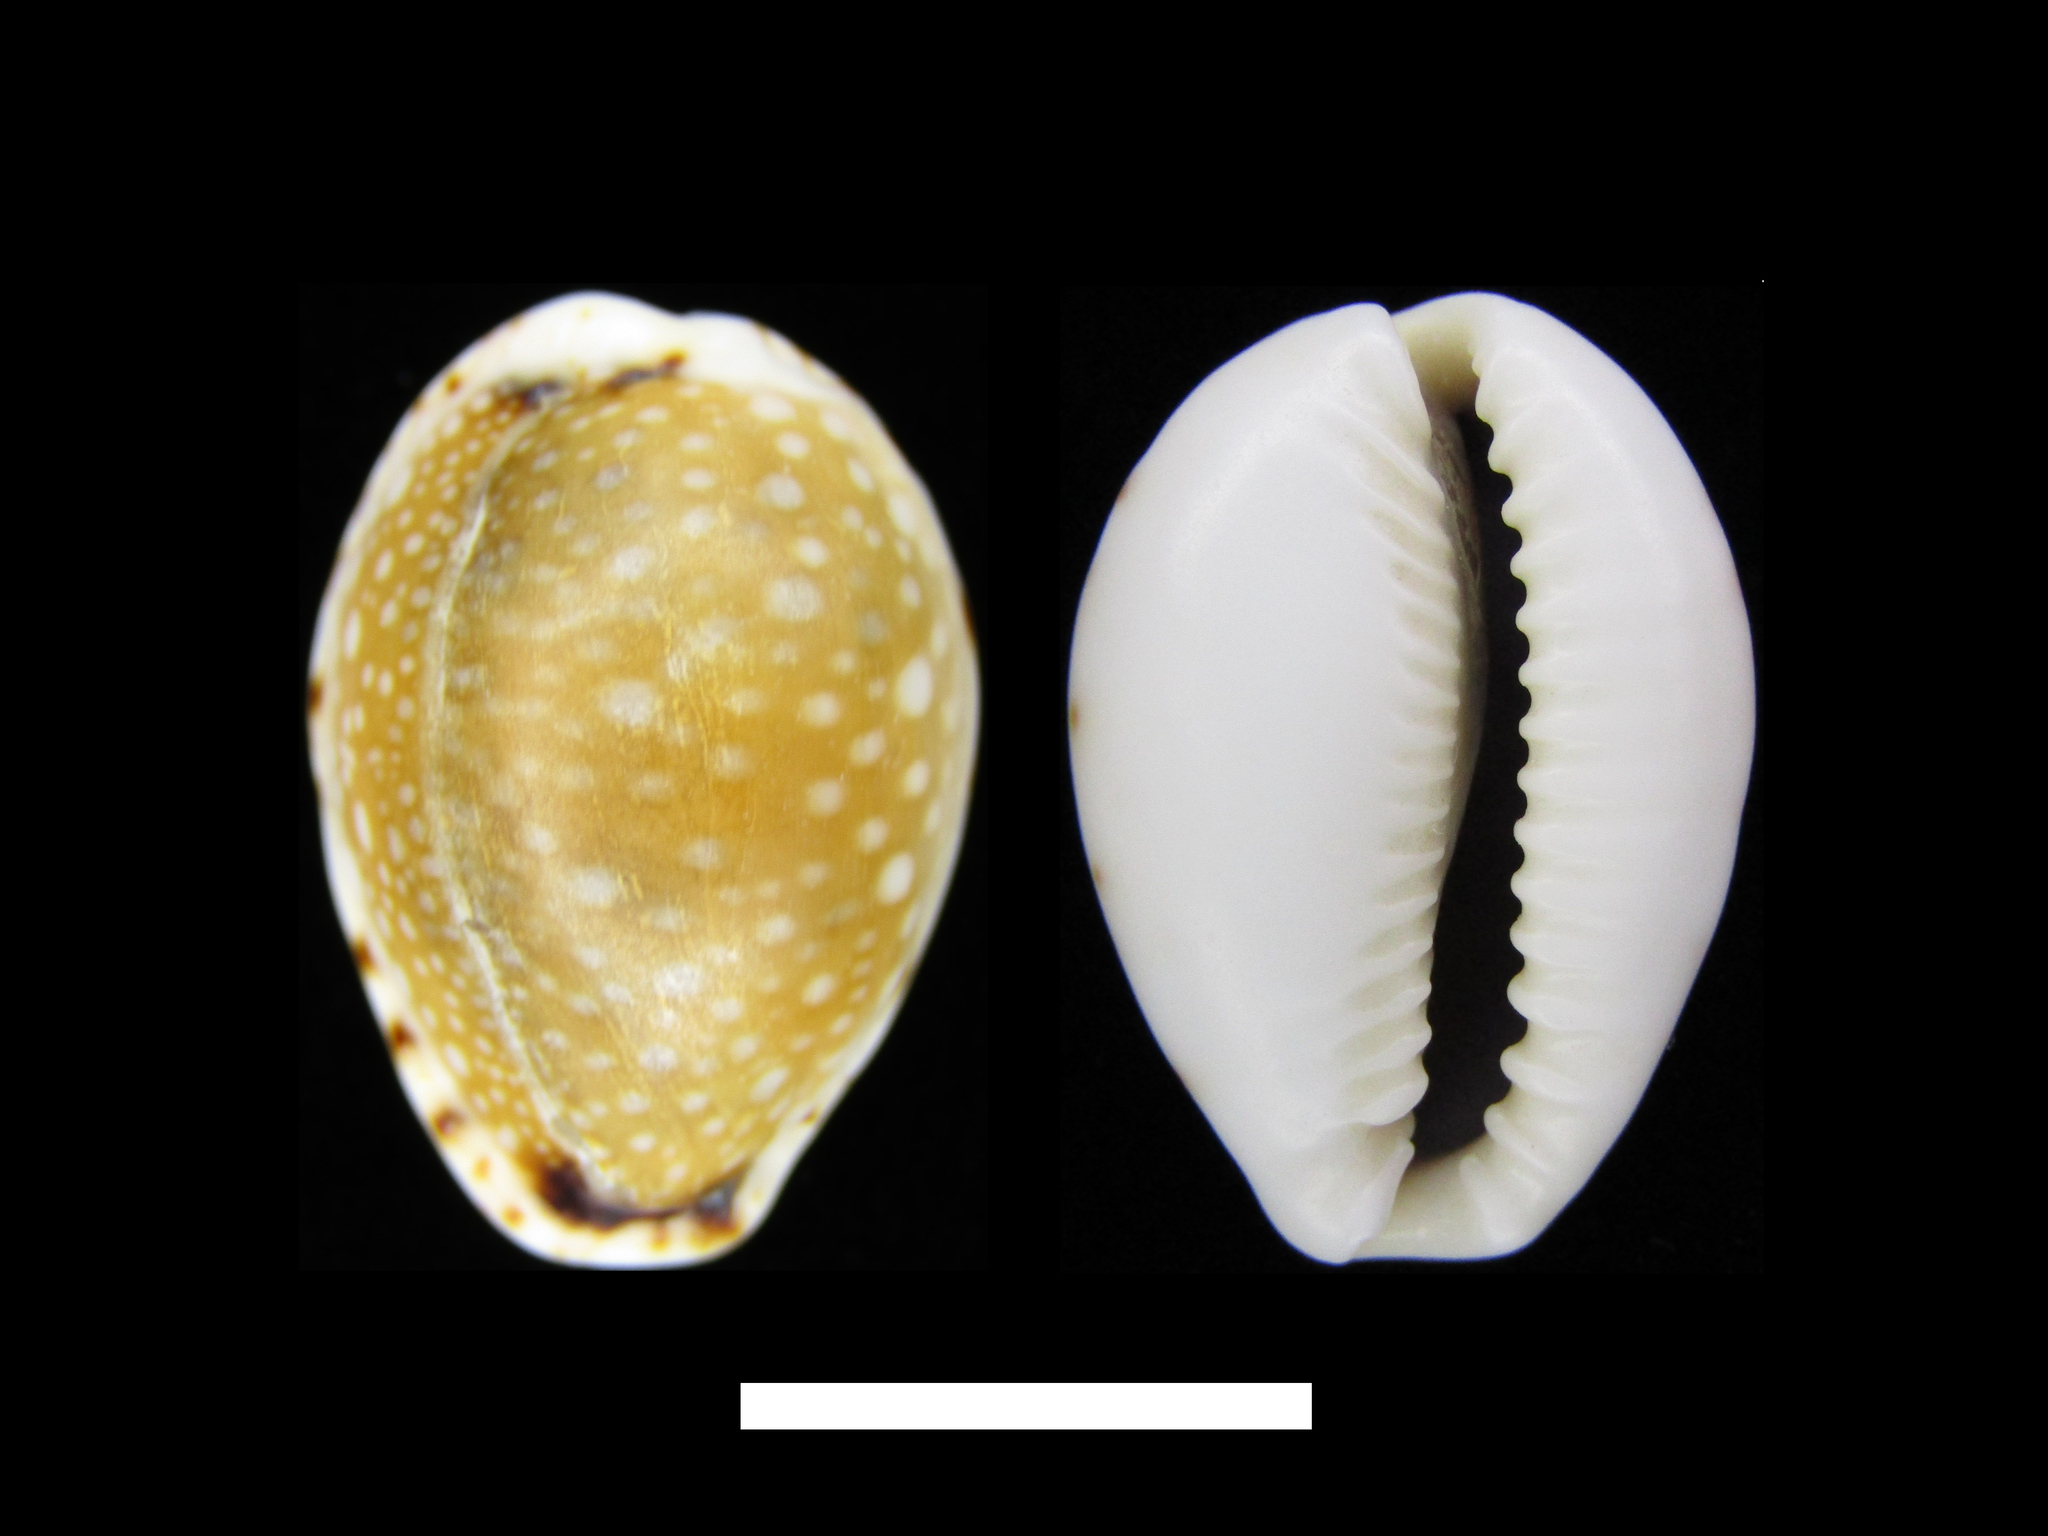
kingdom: Animalia
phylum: Mollusca
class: Gastropoda
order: Littorinimorpha
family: Cypraeidae
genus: Naria
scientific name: Naria labrolineata
